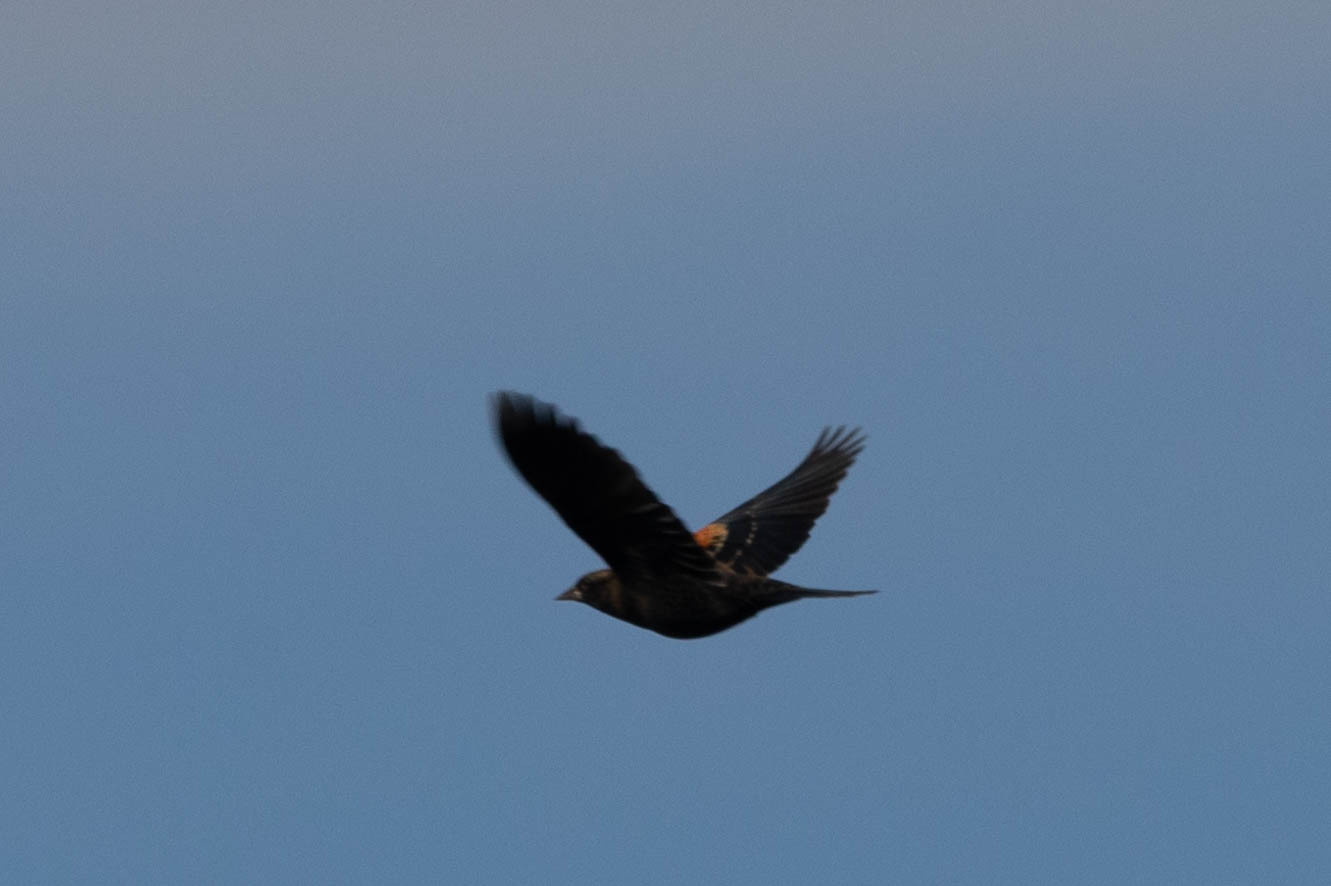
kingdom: Animalia
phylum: Chordata
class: Aves
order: Passeriformes
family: Icteridae
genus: Agelaius
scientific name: Agelaius phoeniceus
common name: Red-winged blackbird
